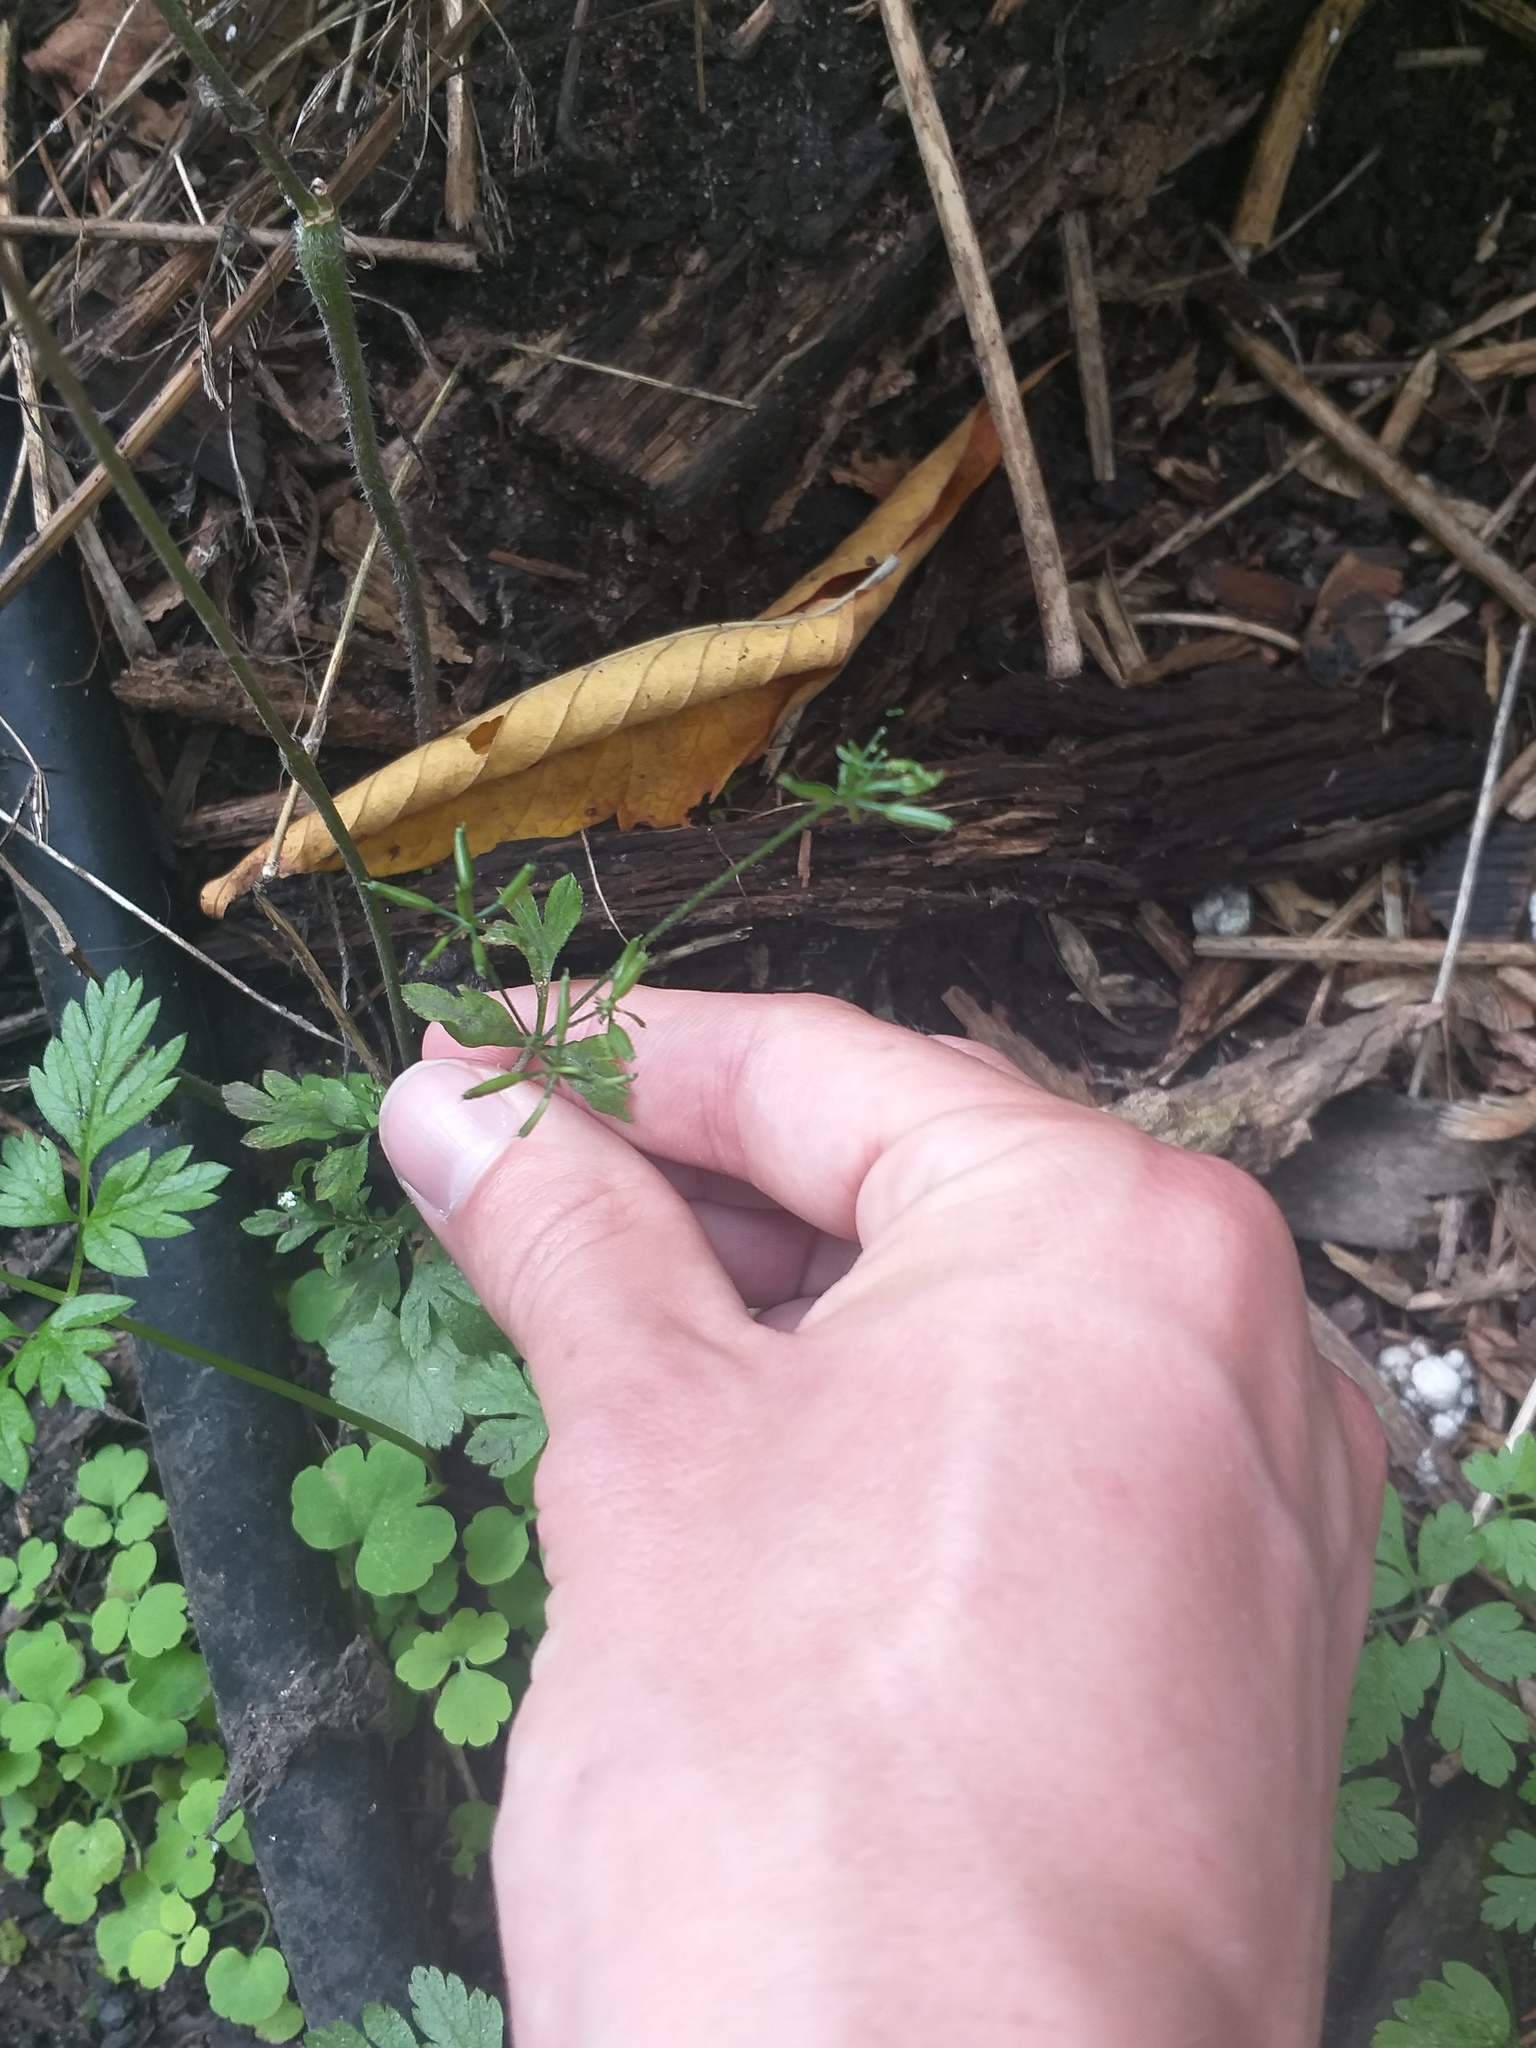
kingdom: Plantae
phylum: Tracheophyta
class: Magnoliopsida
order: Apiales
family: Apiaceae
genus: Chaerophyllum
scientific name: Chaerophyllum temulum
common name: Rough chervil
